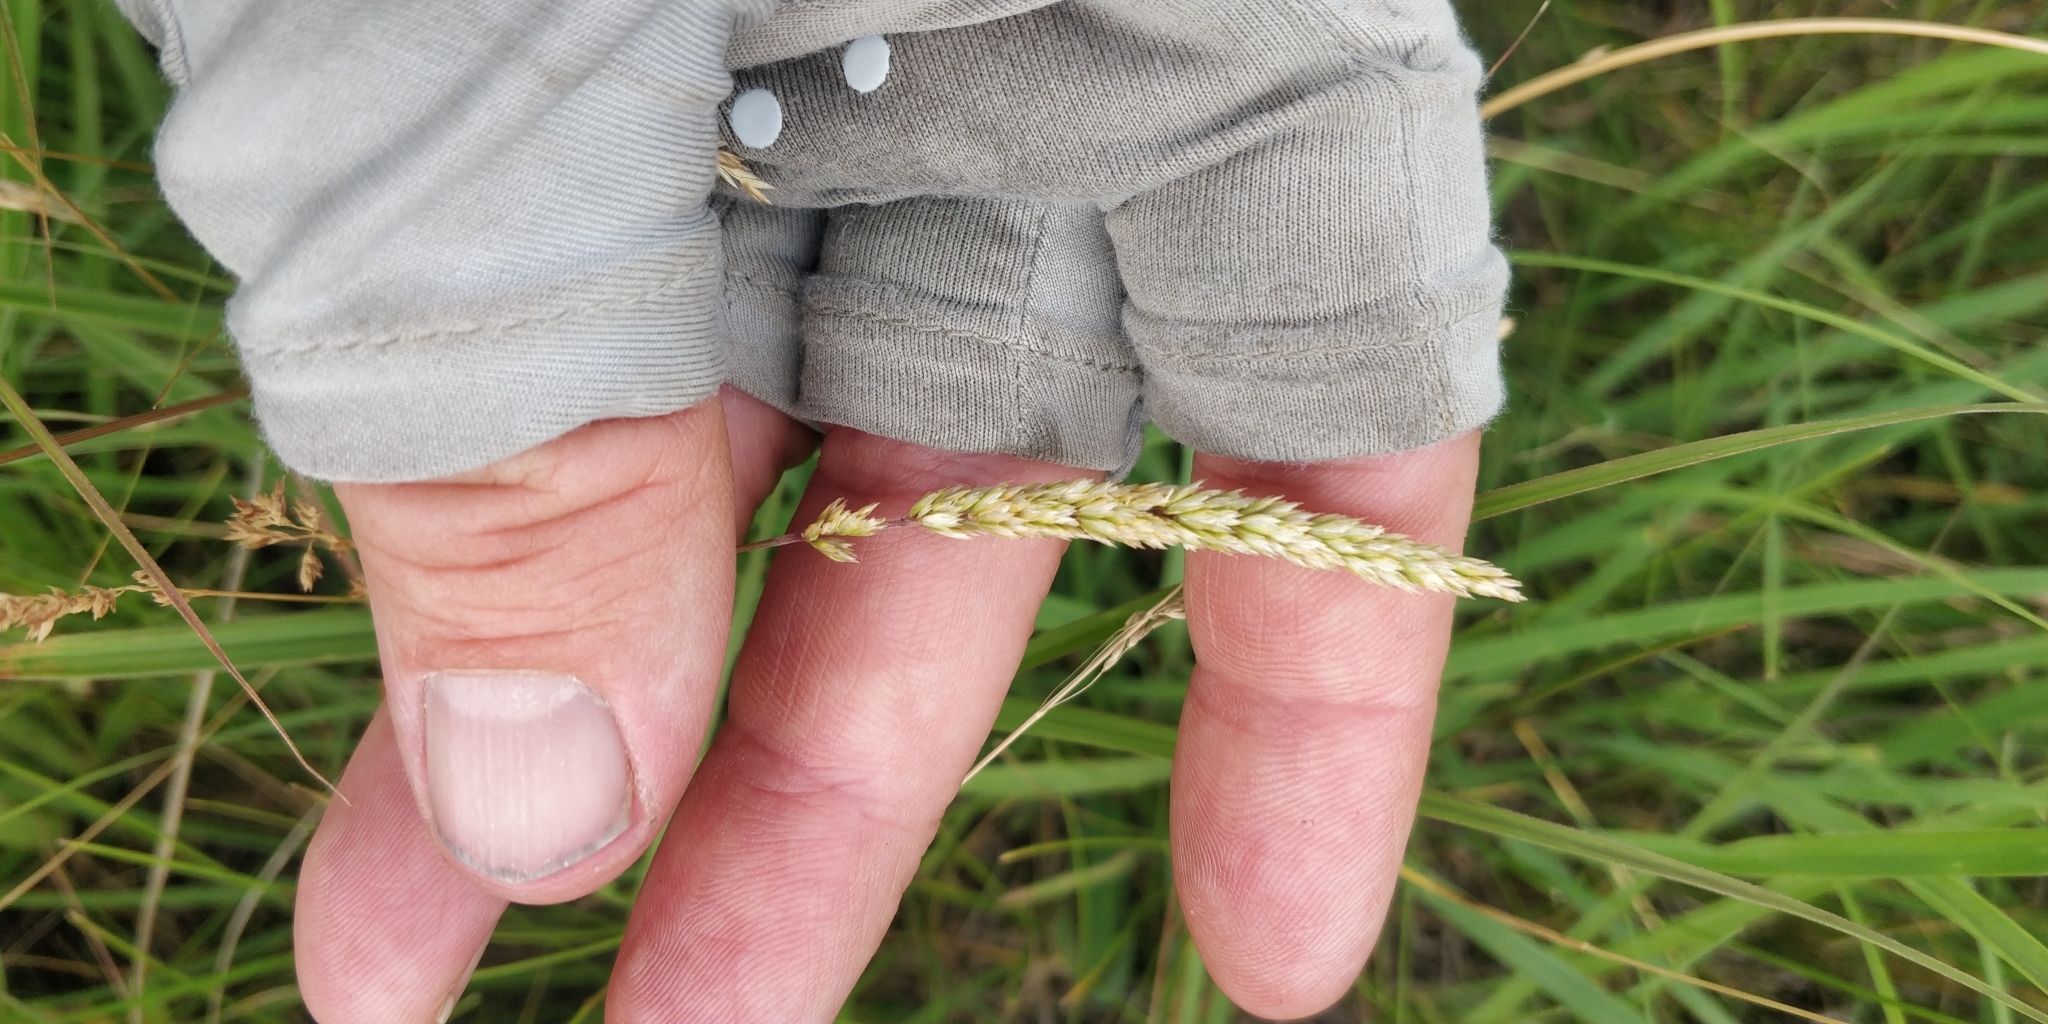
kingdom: Plantae
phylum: Tracheophyta
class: Liliopsida
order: Poales
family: Poaceae
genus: Koeleria
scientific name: Koeleria macrantha
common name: Crested hair-grass
